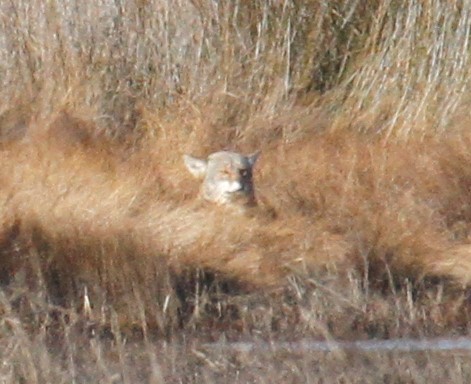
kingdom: Animalia
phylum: Chordata
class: Mammalia
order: Carnivora
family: Canidae
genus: Canis
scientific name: Canis latrans
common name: Coyote
